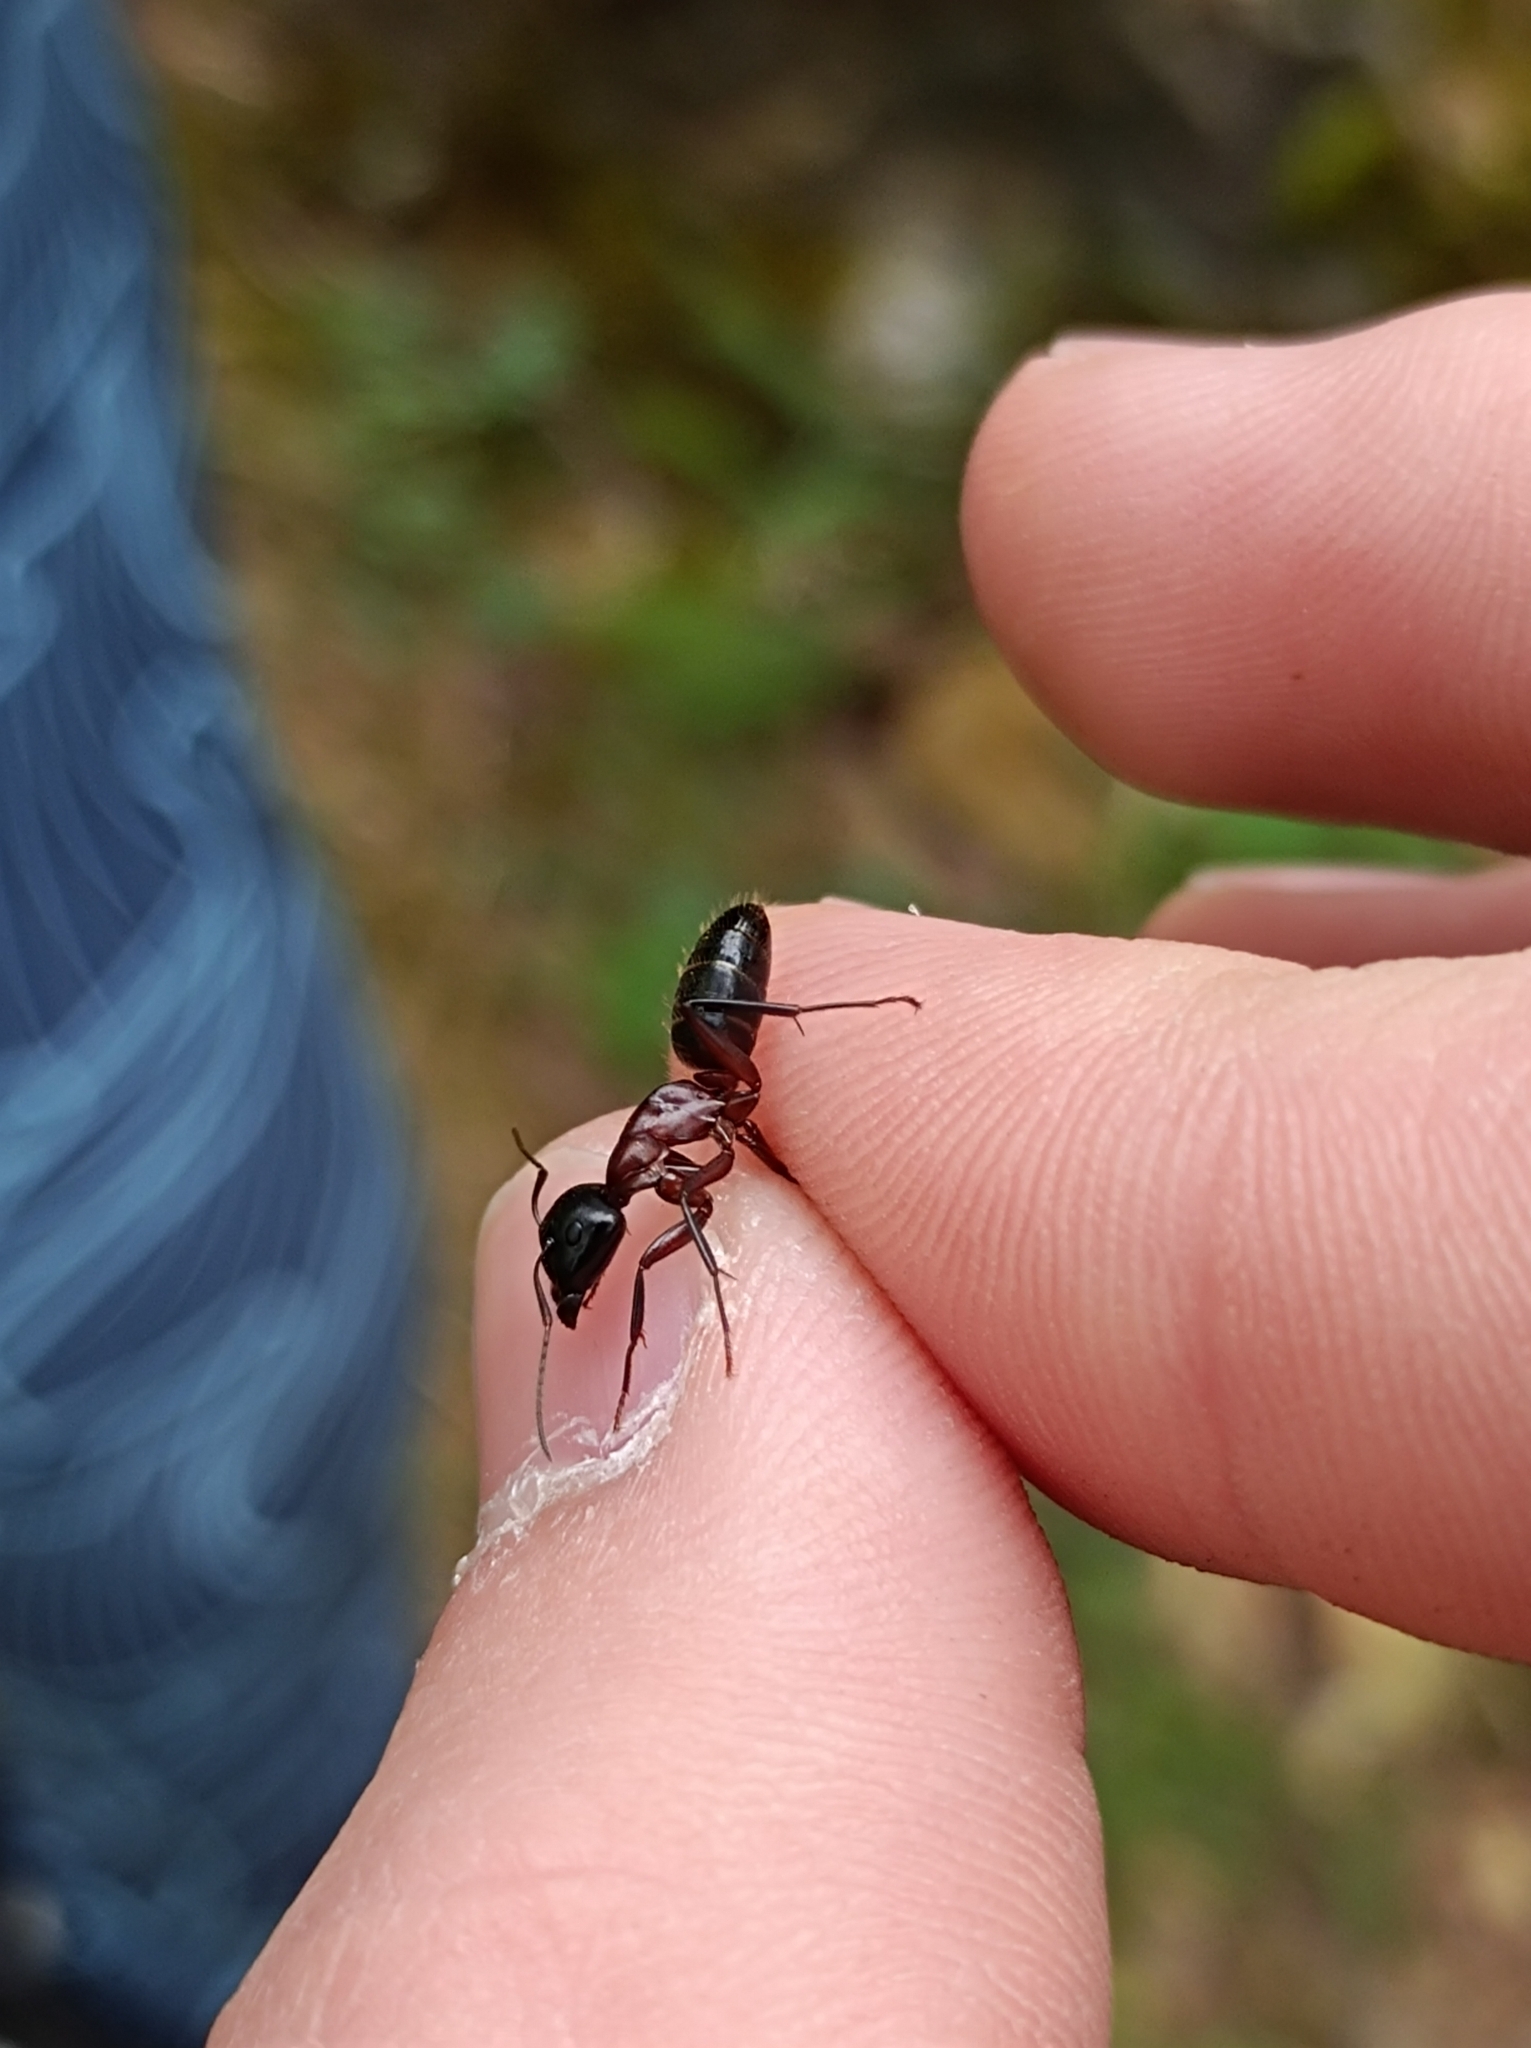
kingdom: Animalia
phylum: Arthropoda
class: Insecta
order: Hymenoptera
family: Formicidae
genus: Camponotus
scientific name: Camponotus ligniperdus
